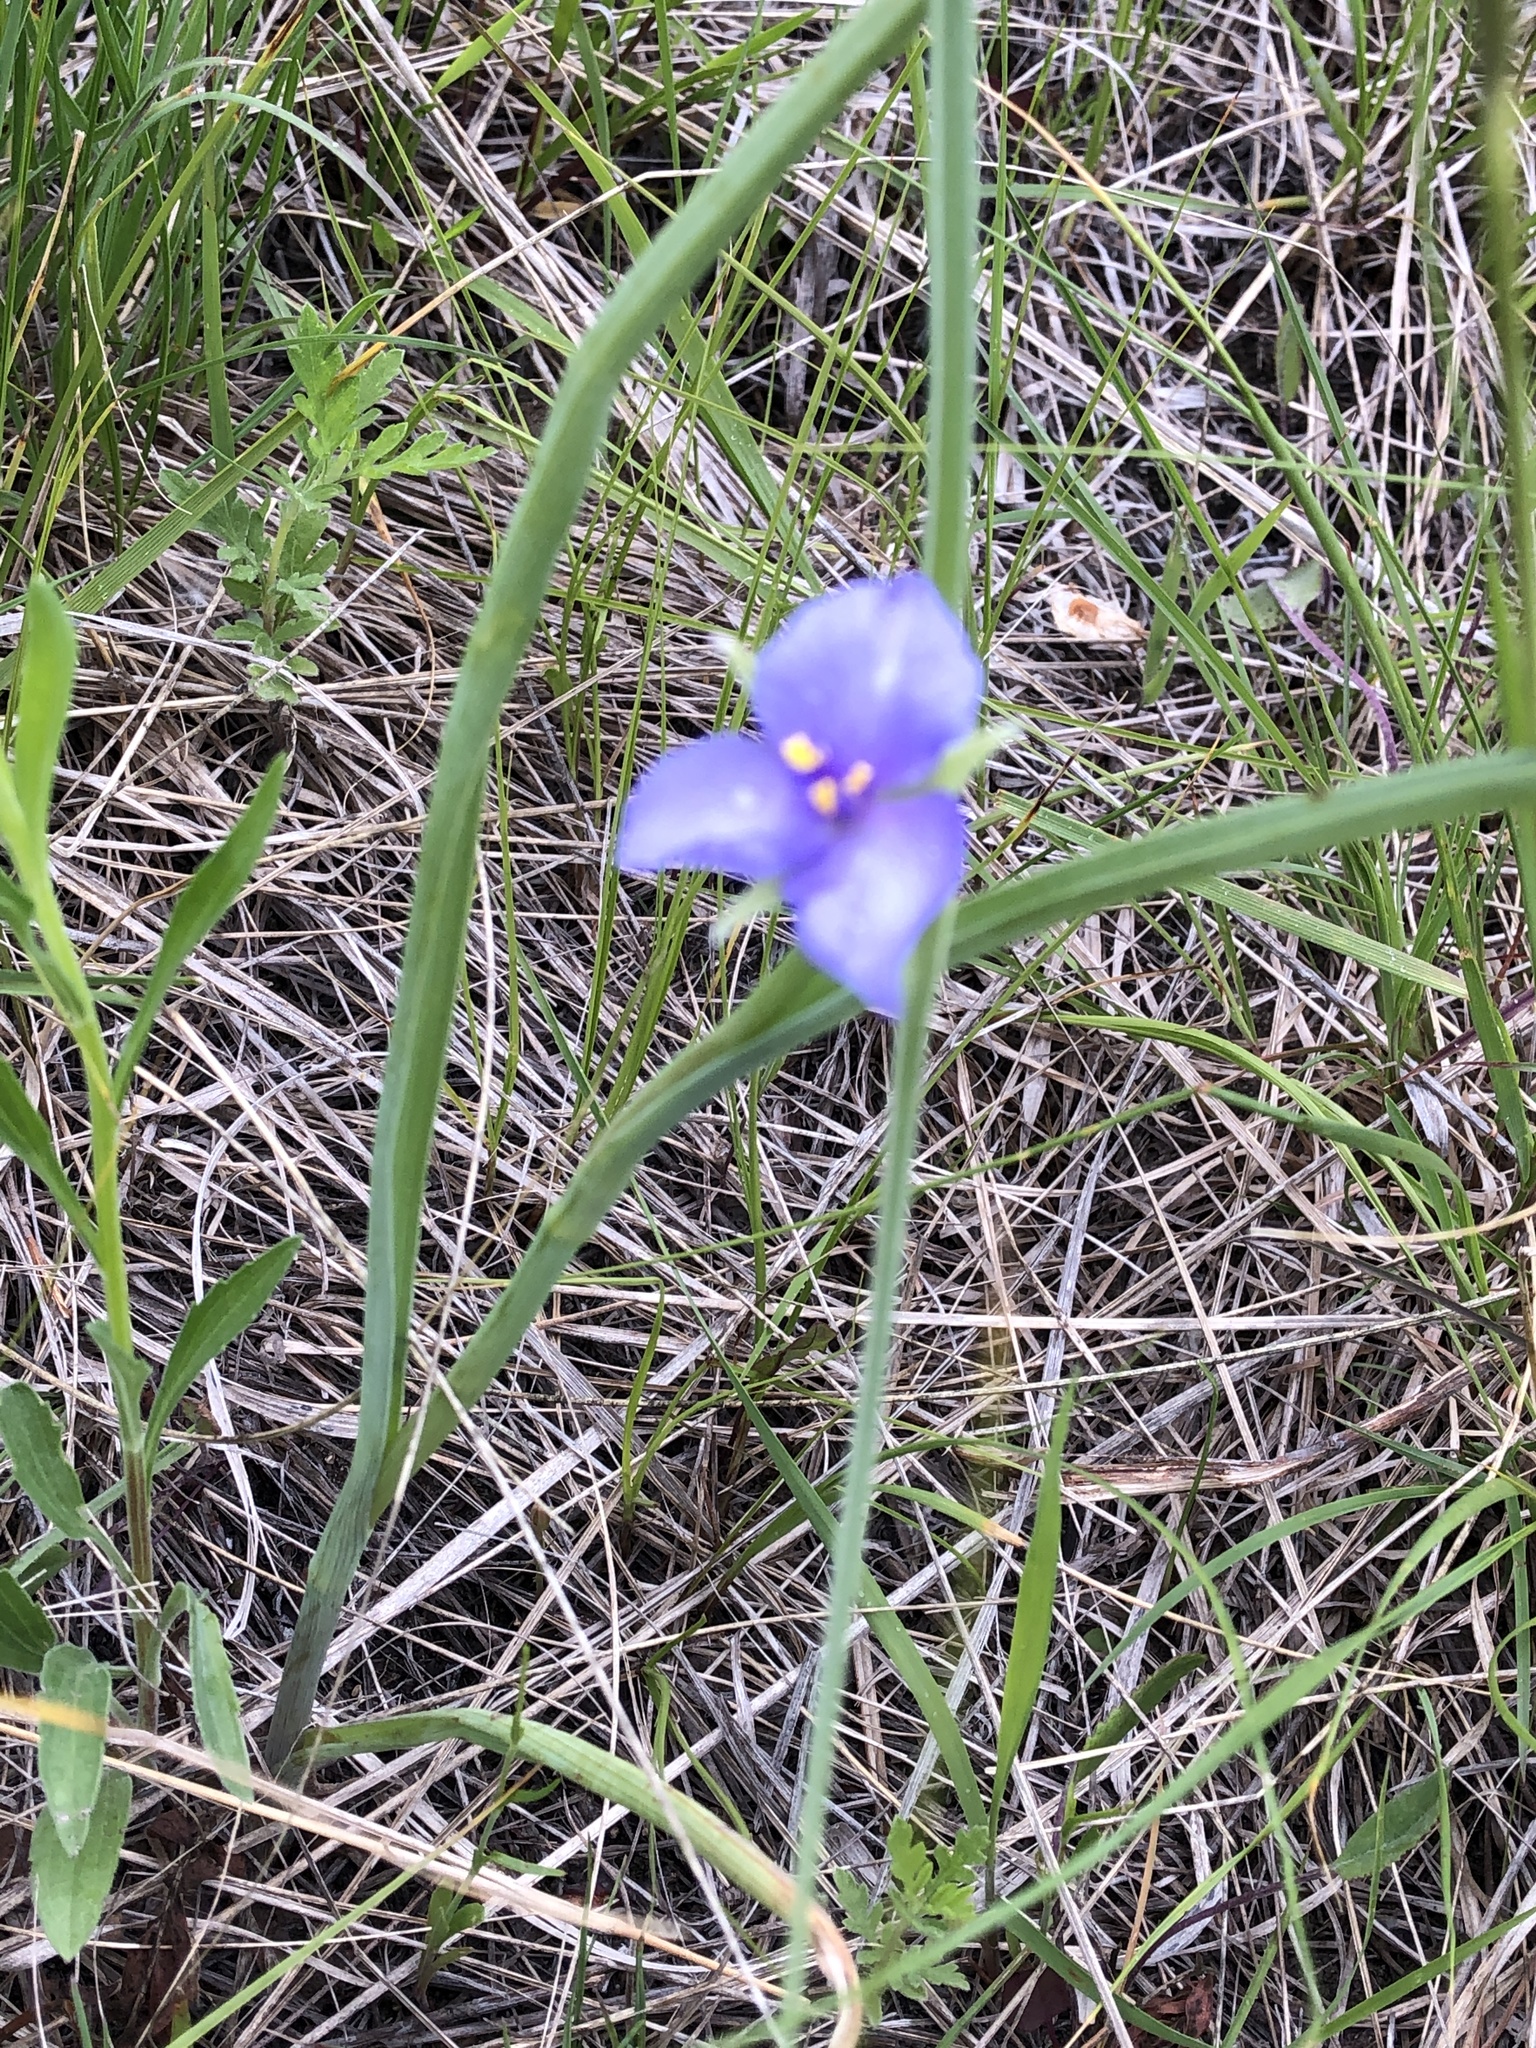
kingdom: Plantae
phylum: Tracheophyta
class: Liliopsida
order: Commelinales
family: Commelinaceae
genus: Tradescantia
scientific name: Tradescantia ohiensis
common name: Ohio spiderwort
